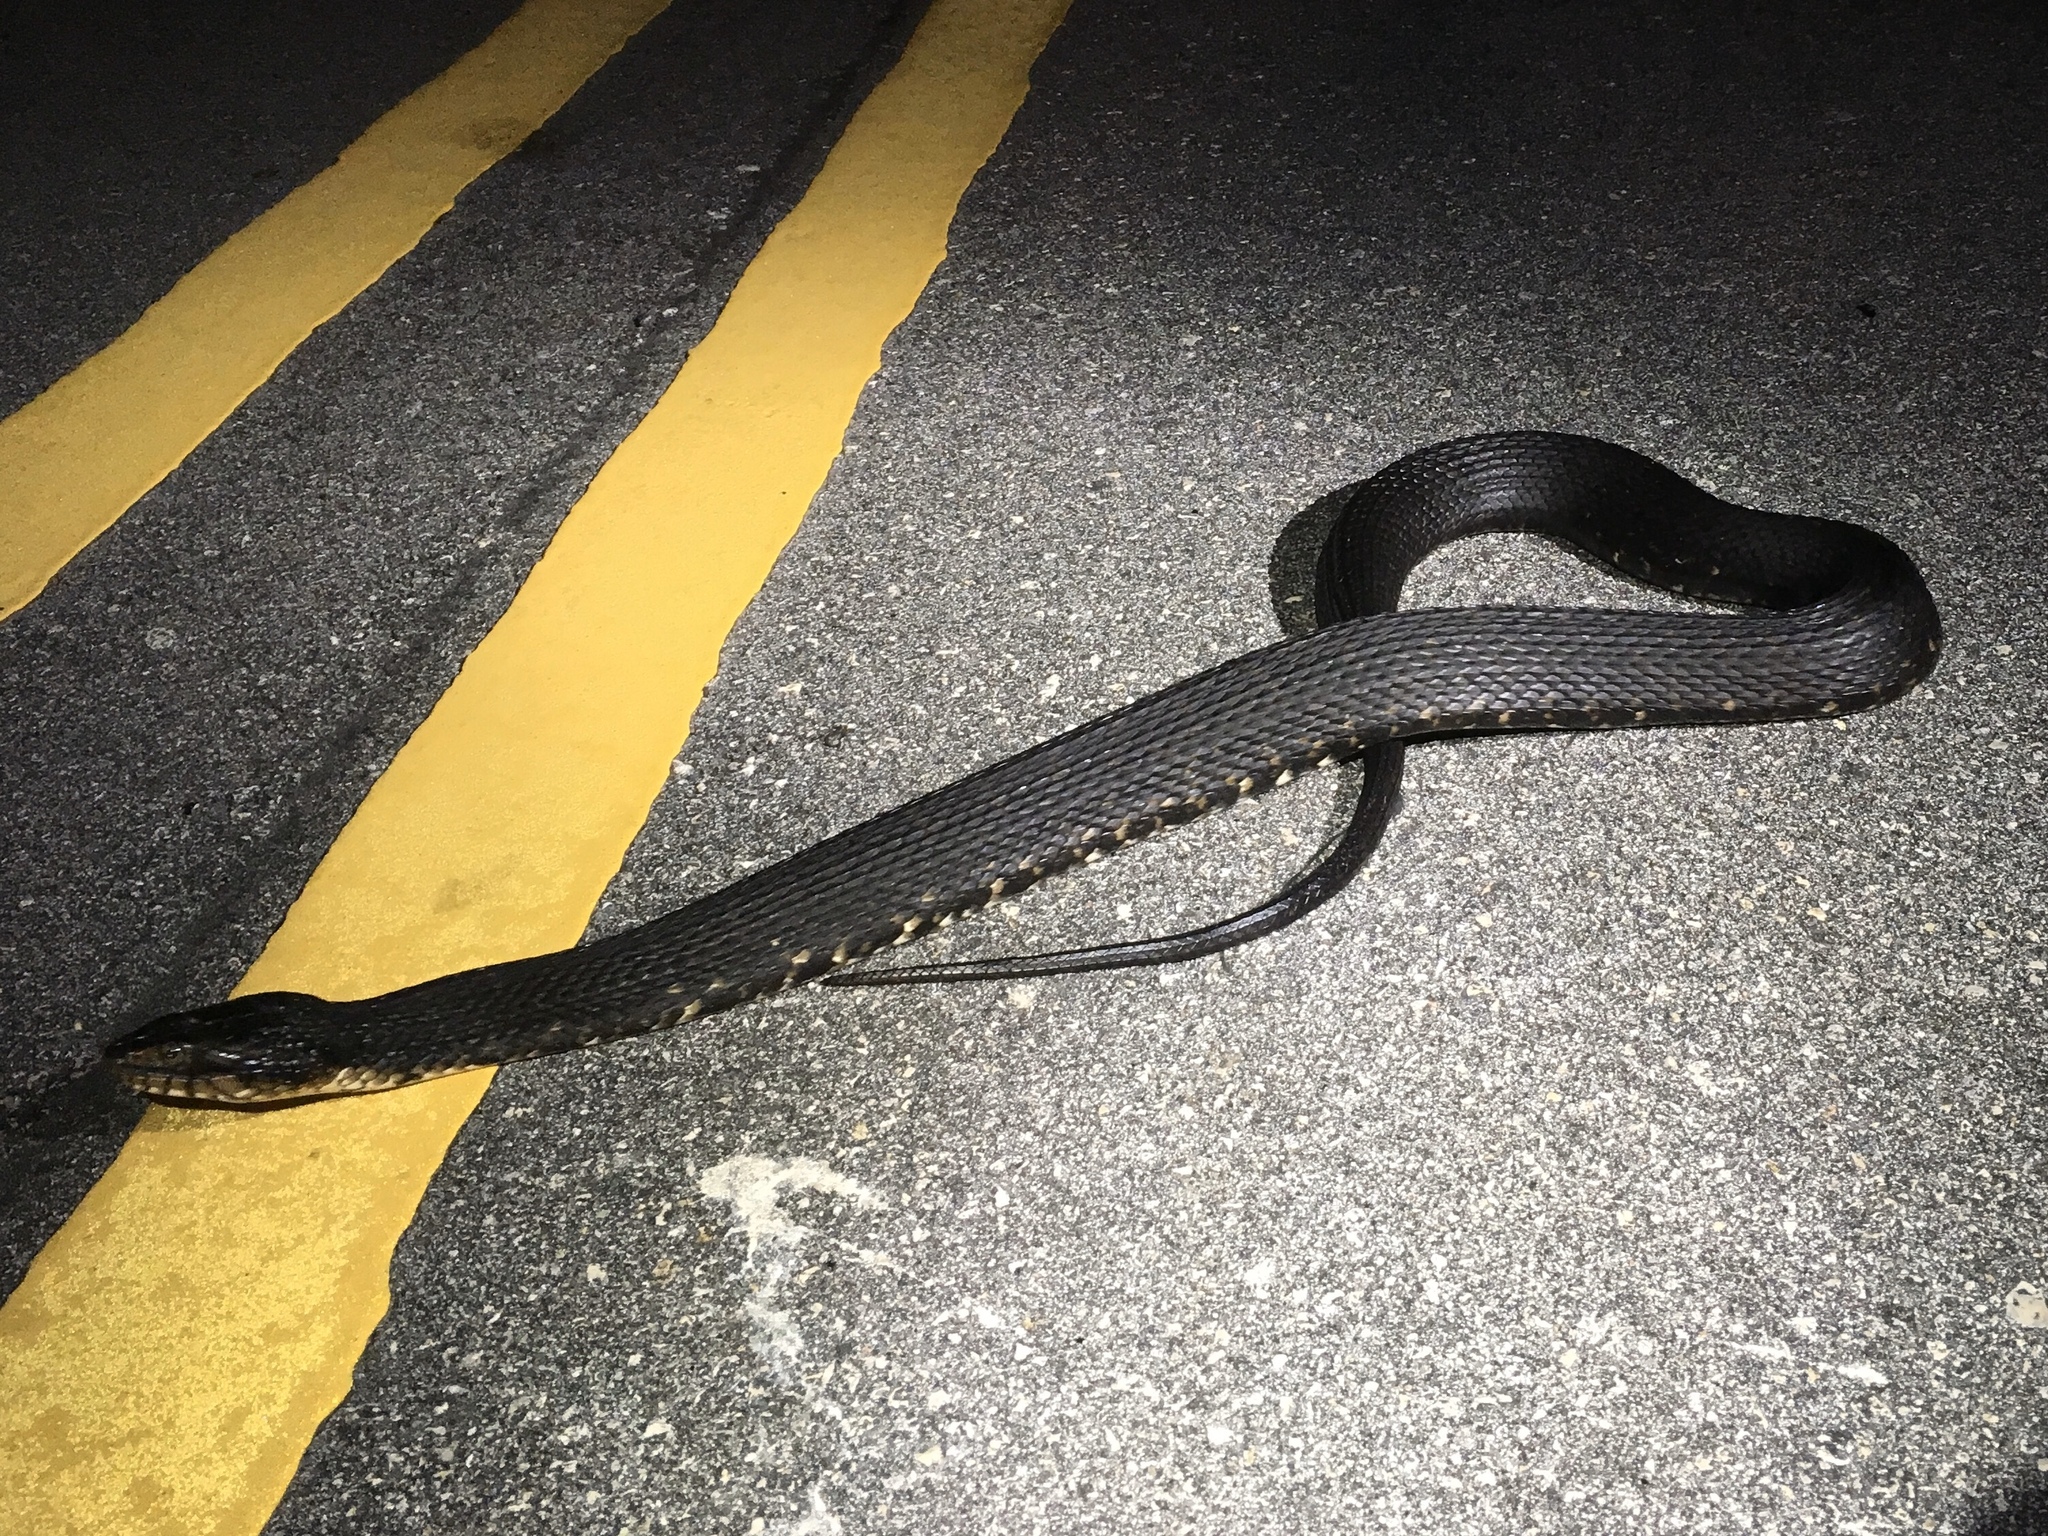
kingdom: Animalia
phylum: Chordata
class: Squamata
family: Colubridae
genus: Nerodia
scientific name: Nerodia fasciata
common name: Southern water snake
